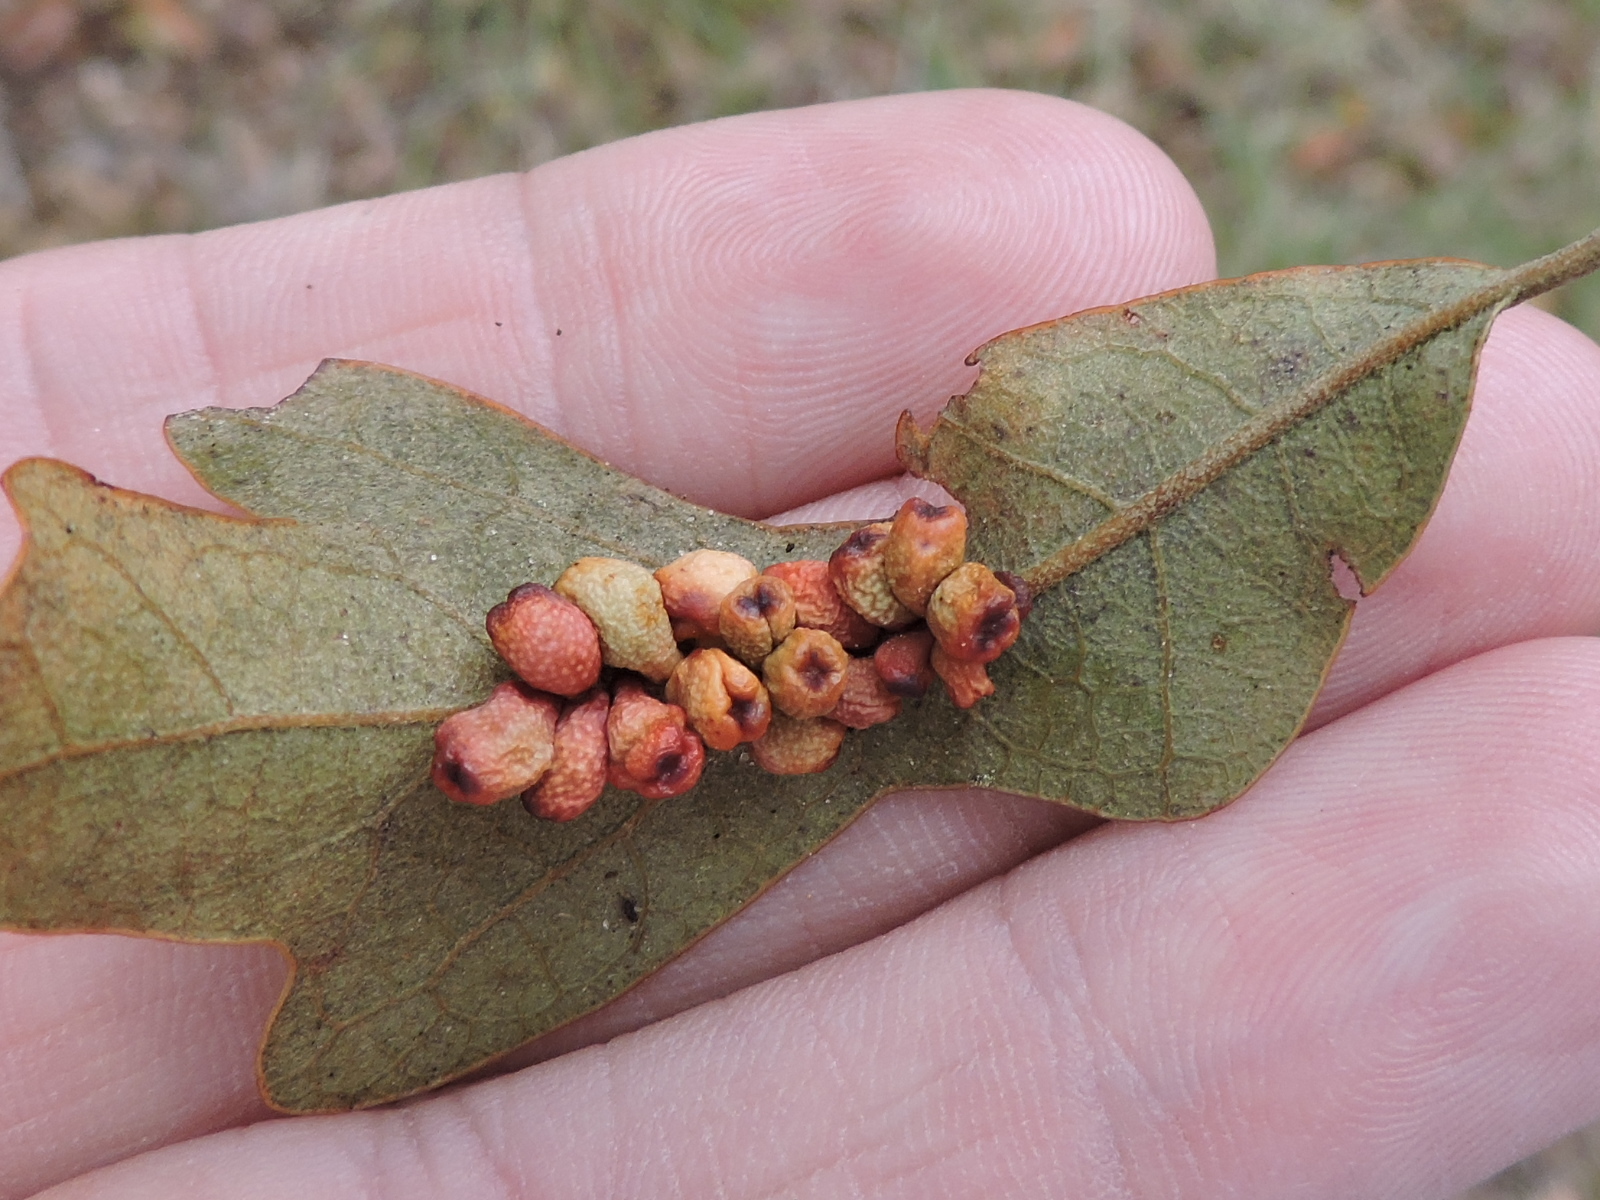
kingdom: Animalia
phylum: Arthropoda
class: Insecta
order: Hymenoptera
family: Cynipidae
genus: Andricus
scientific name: Andricus lustrans
